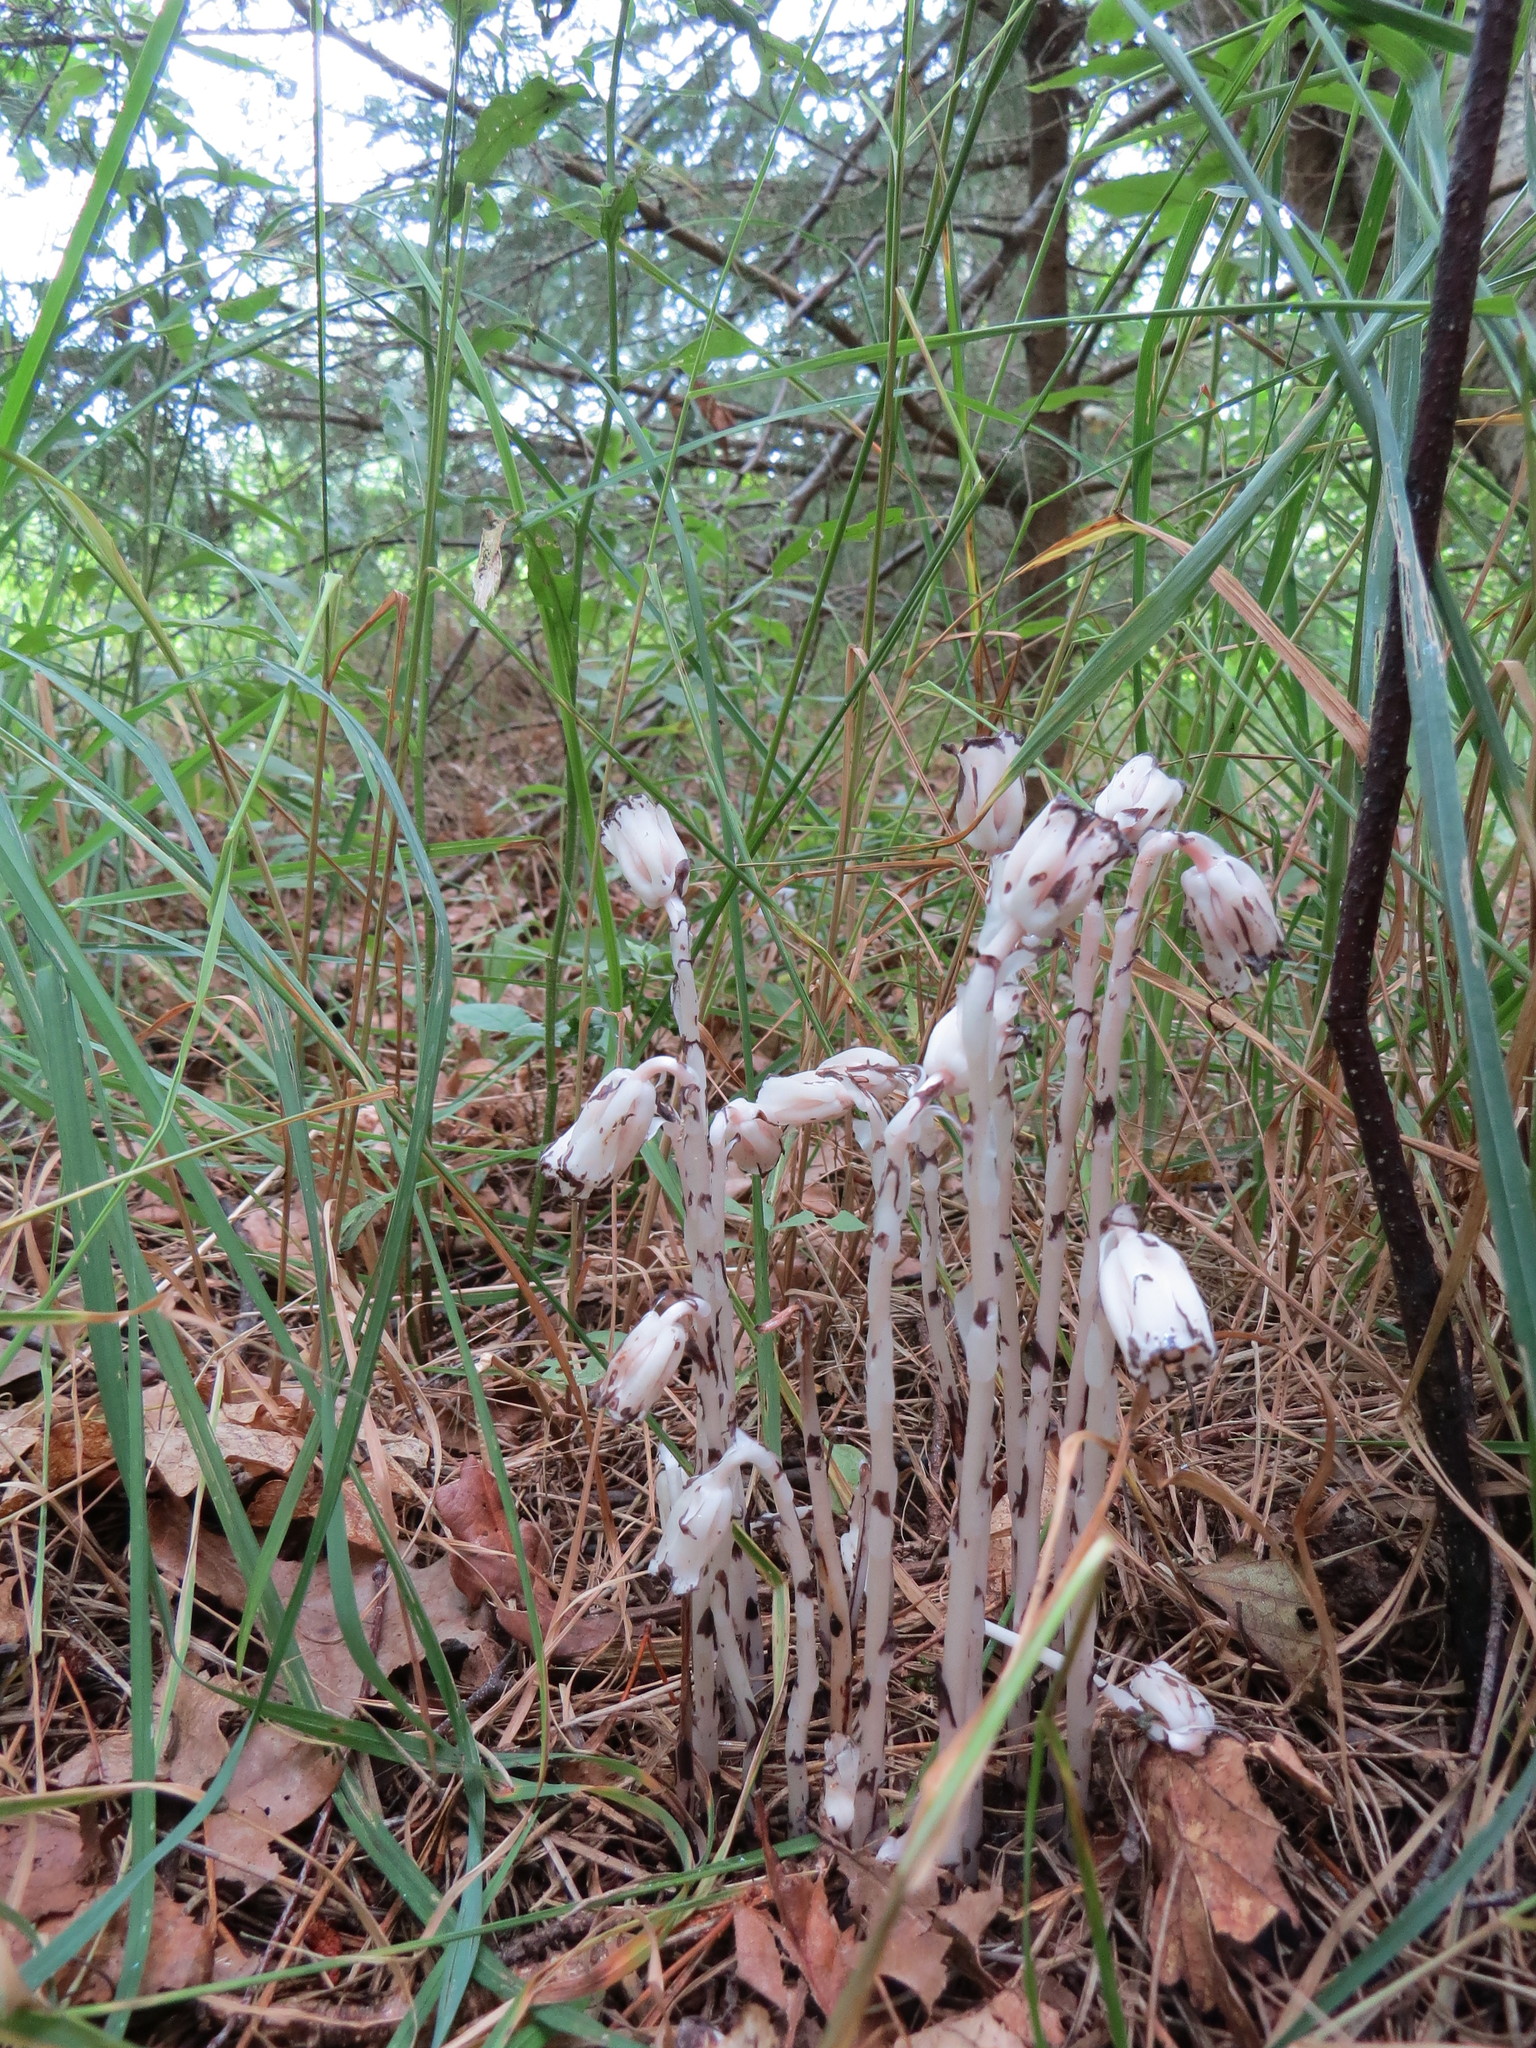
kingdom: Plantae
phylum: Tracheophyta
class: Magnoliopsida
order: Ericales
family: Ericaceae
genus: Monotropa
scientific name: Monotropa uniflora
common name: Convulsion root
